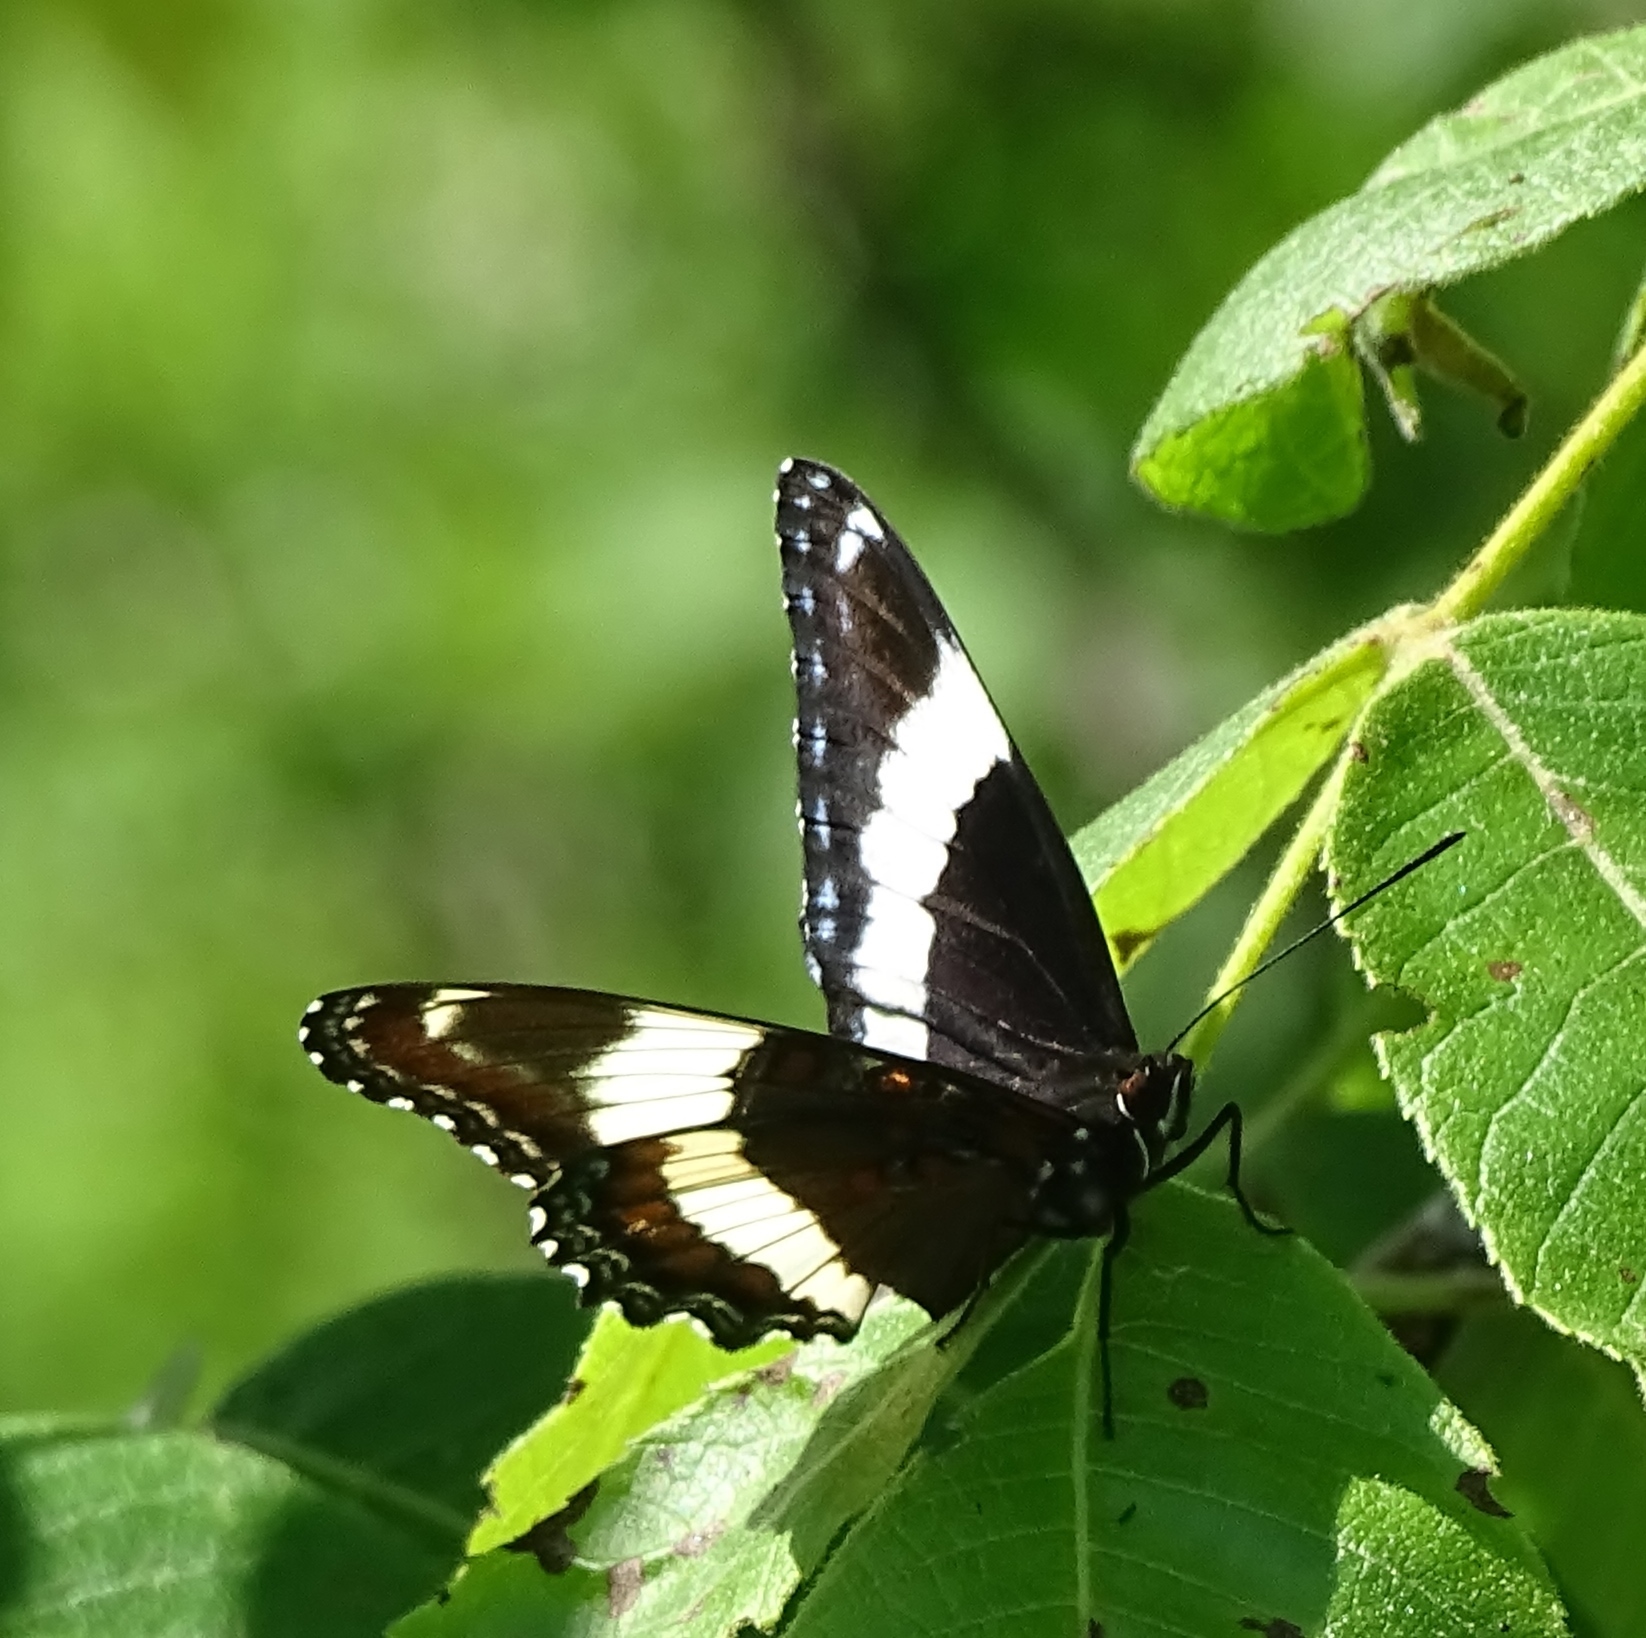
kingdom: Animalia
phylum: Arthropoda
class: Insecta
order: Lepidoptera
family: Nymphalidae
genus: Limenitis
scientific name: Limenitis arthemis
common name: Red-spotted admiral
